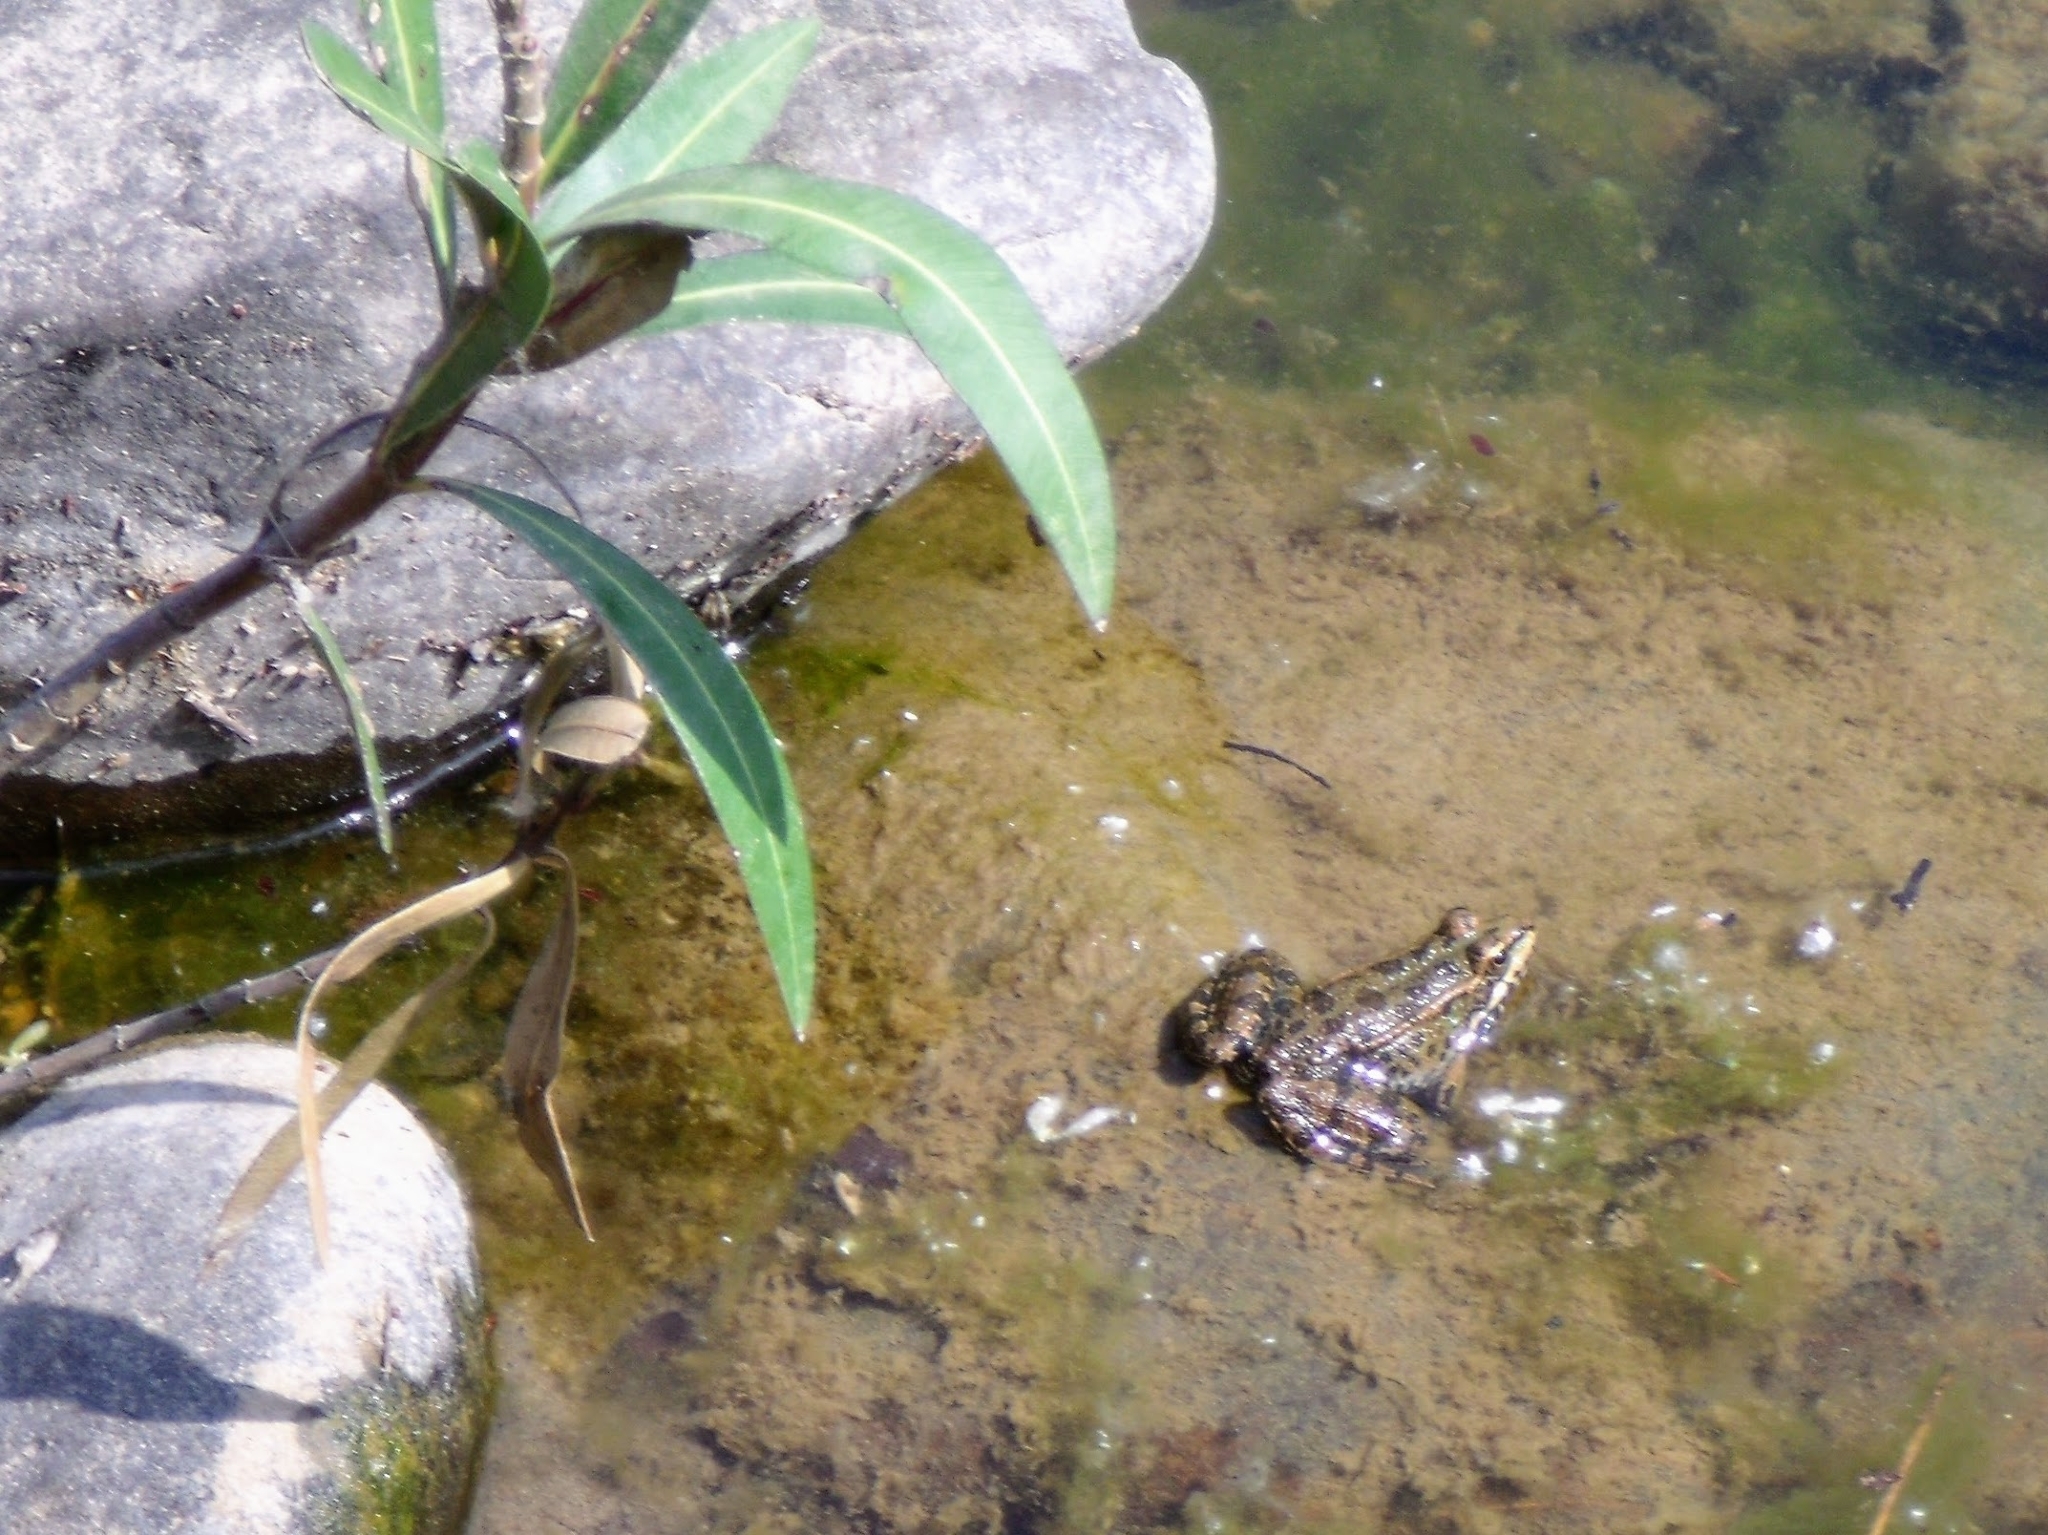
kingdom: Animalia
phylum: Chordata
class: Amphibia
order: Anura
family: Ranidae
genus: Pelophylax
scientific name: Pelophylax perezi
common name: Perez's frog
